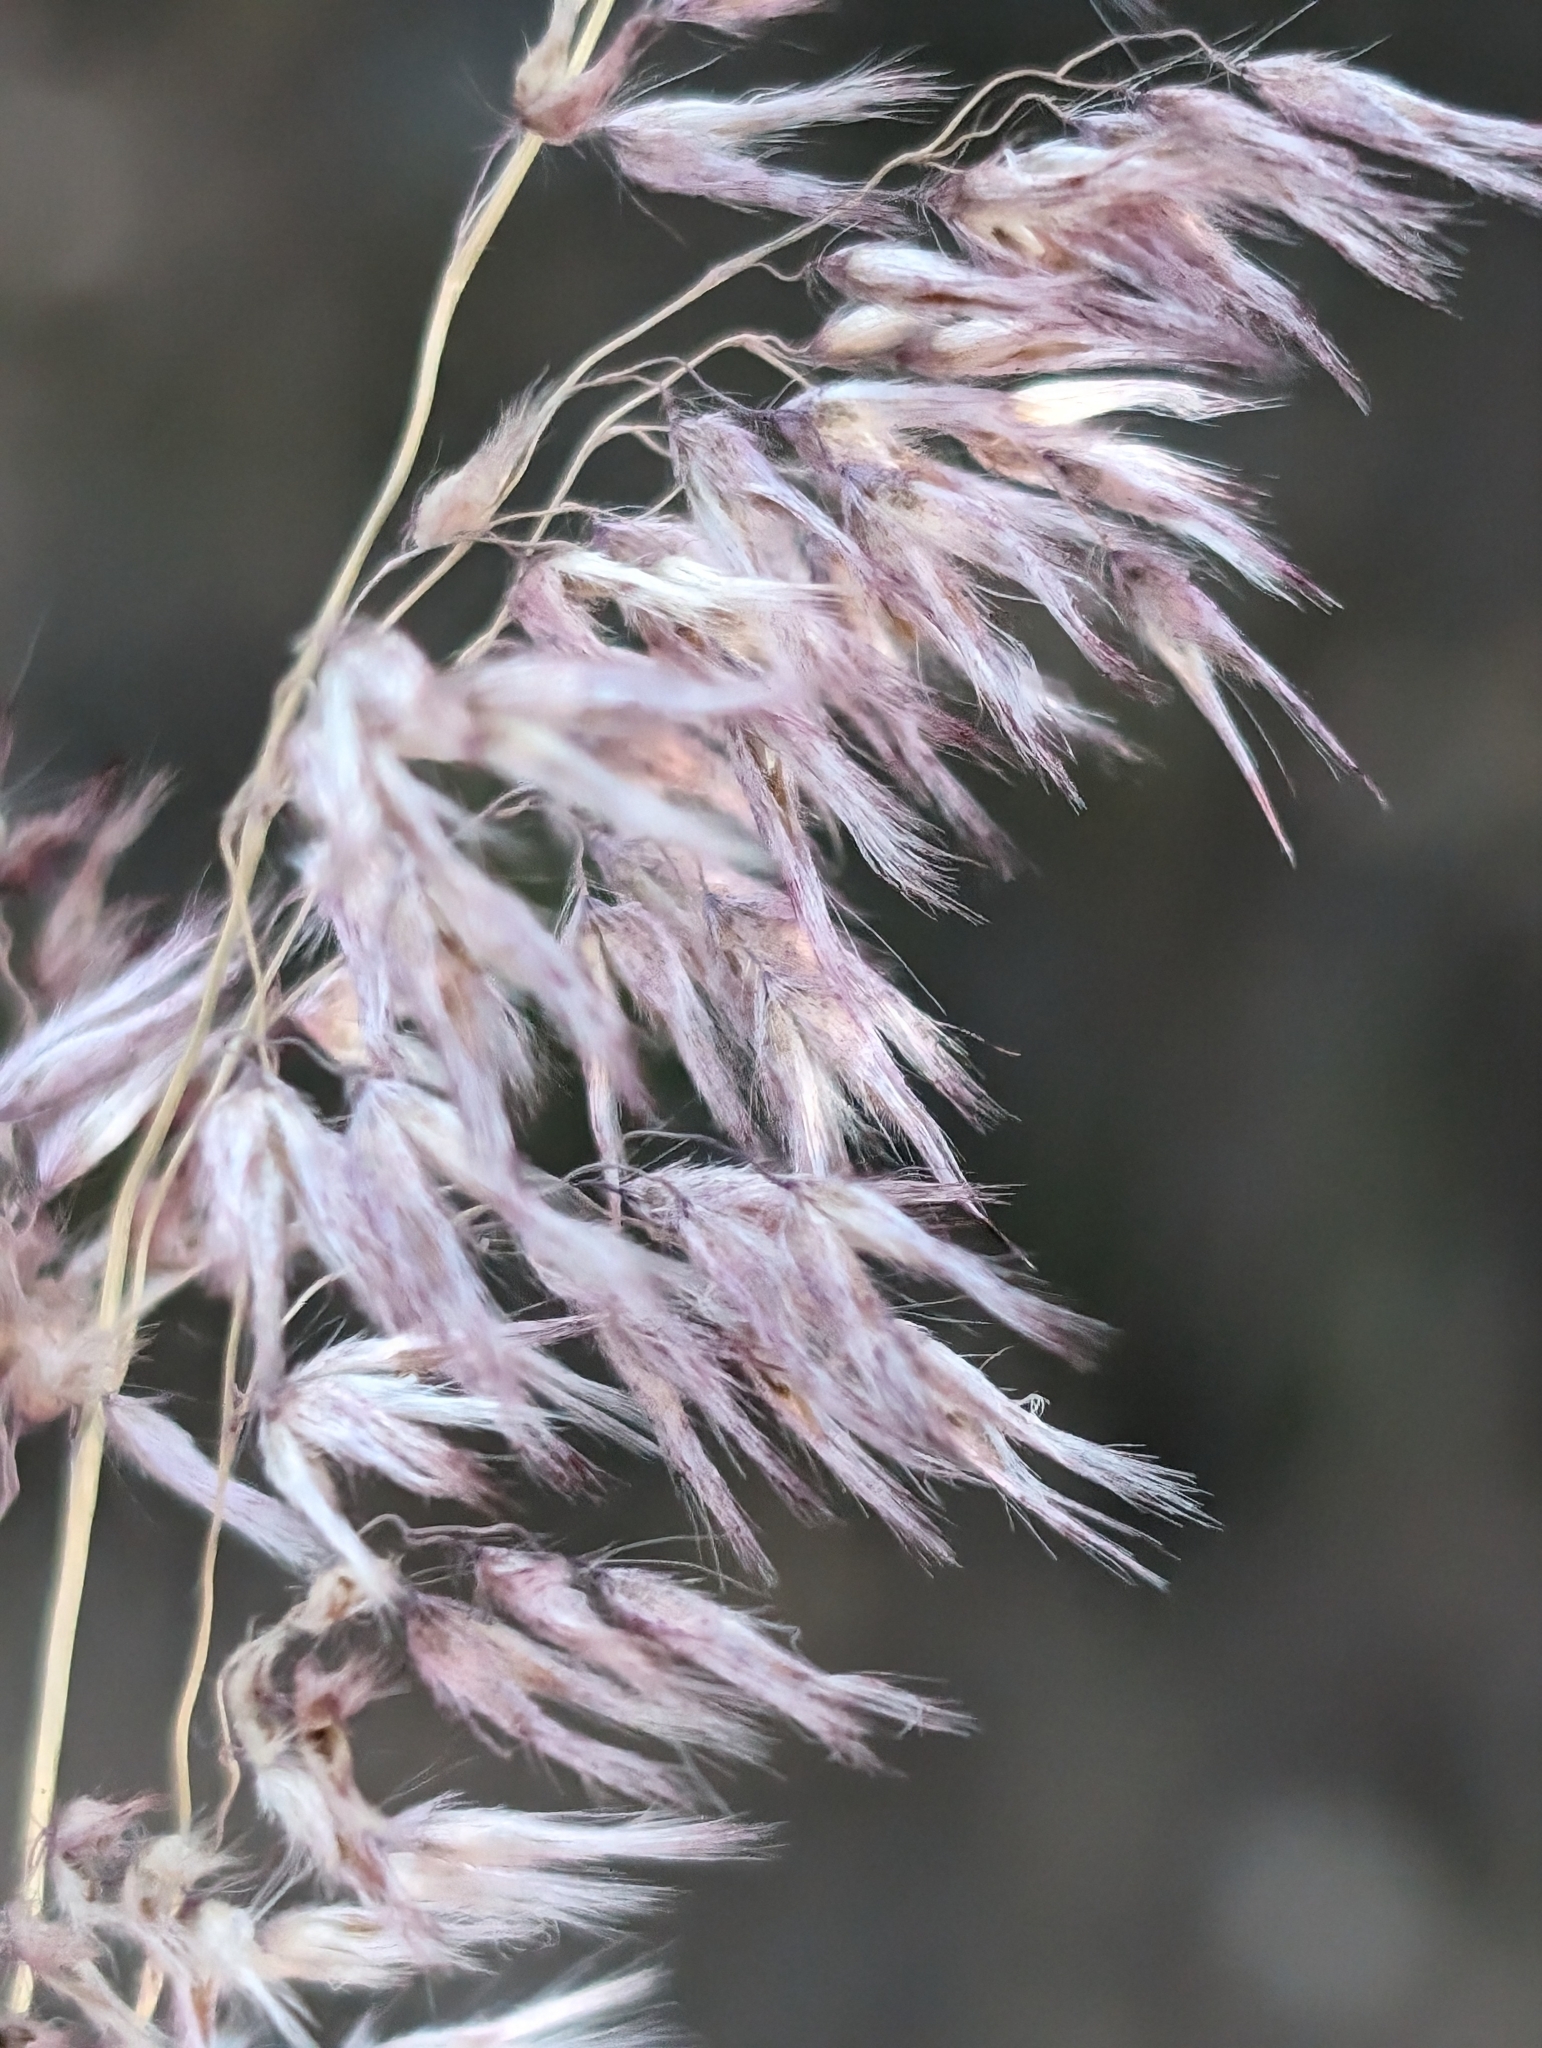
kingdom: Plantae
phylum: Tracheophyta
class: Liliopsida
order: Poales
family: Poaceae
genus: Melinis
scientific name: Melinis repens
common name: Rose natal grass
